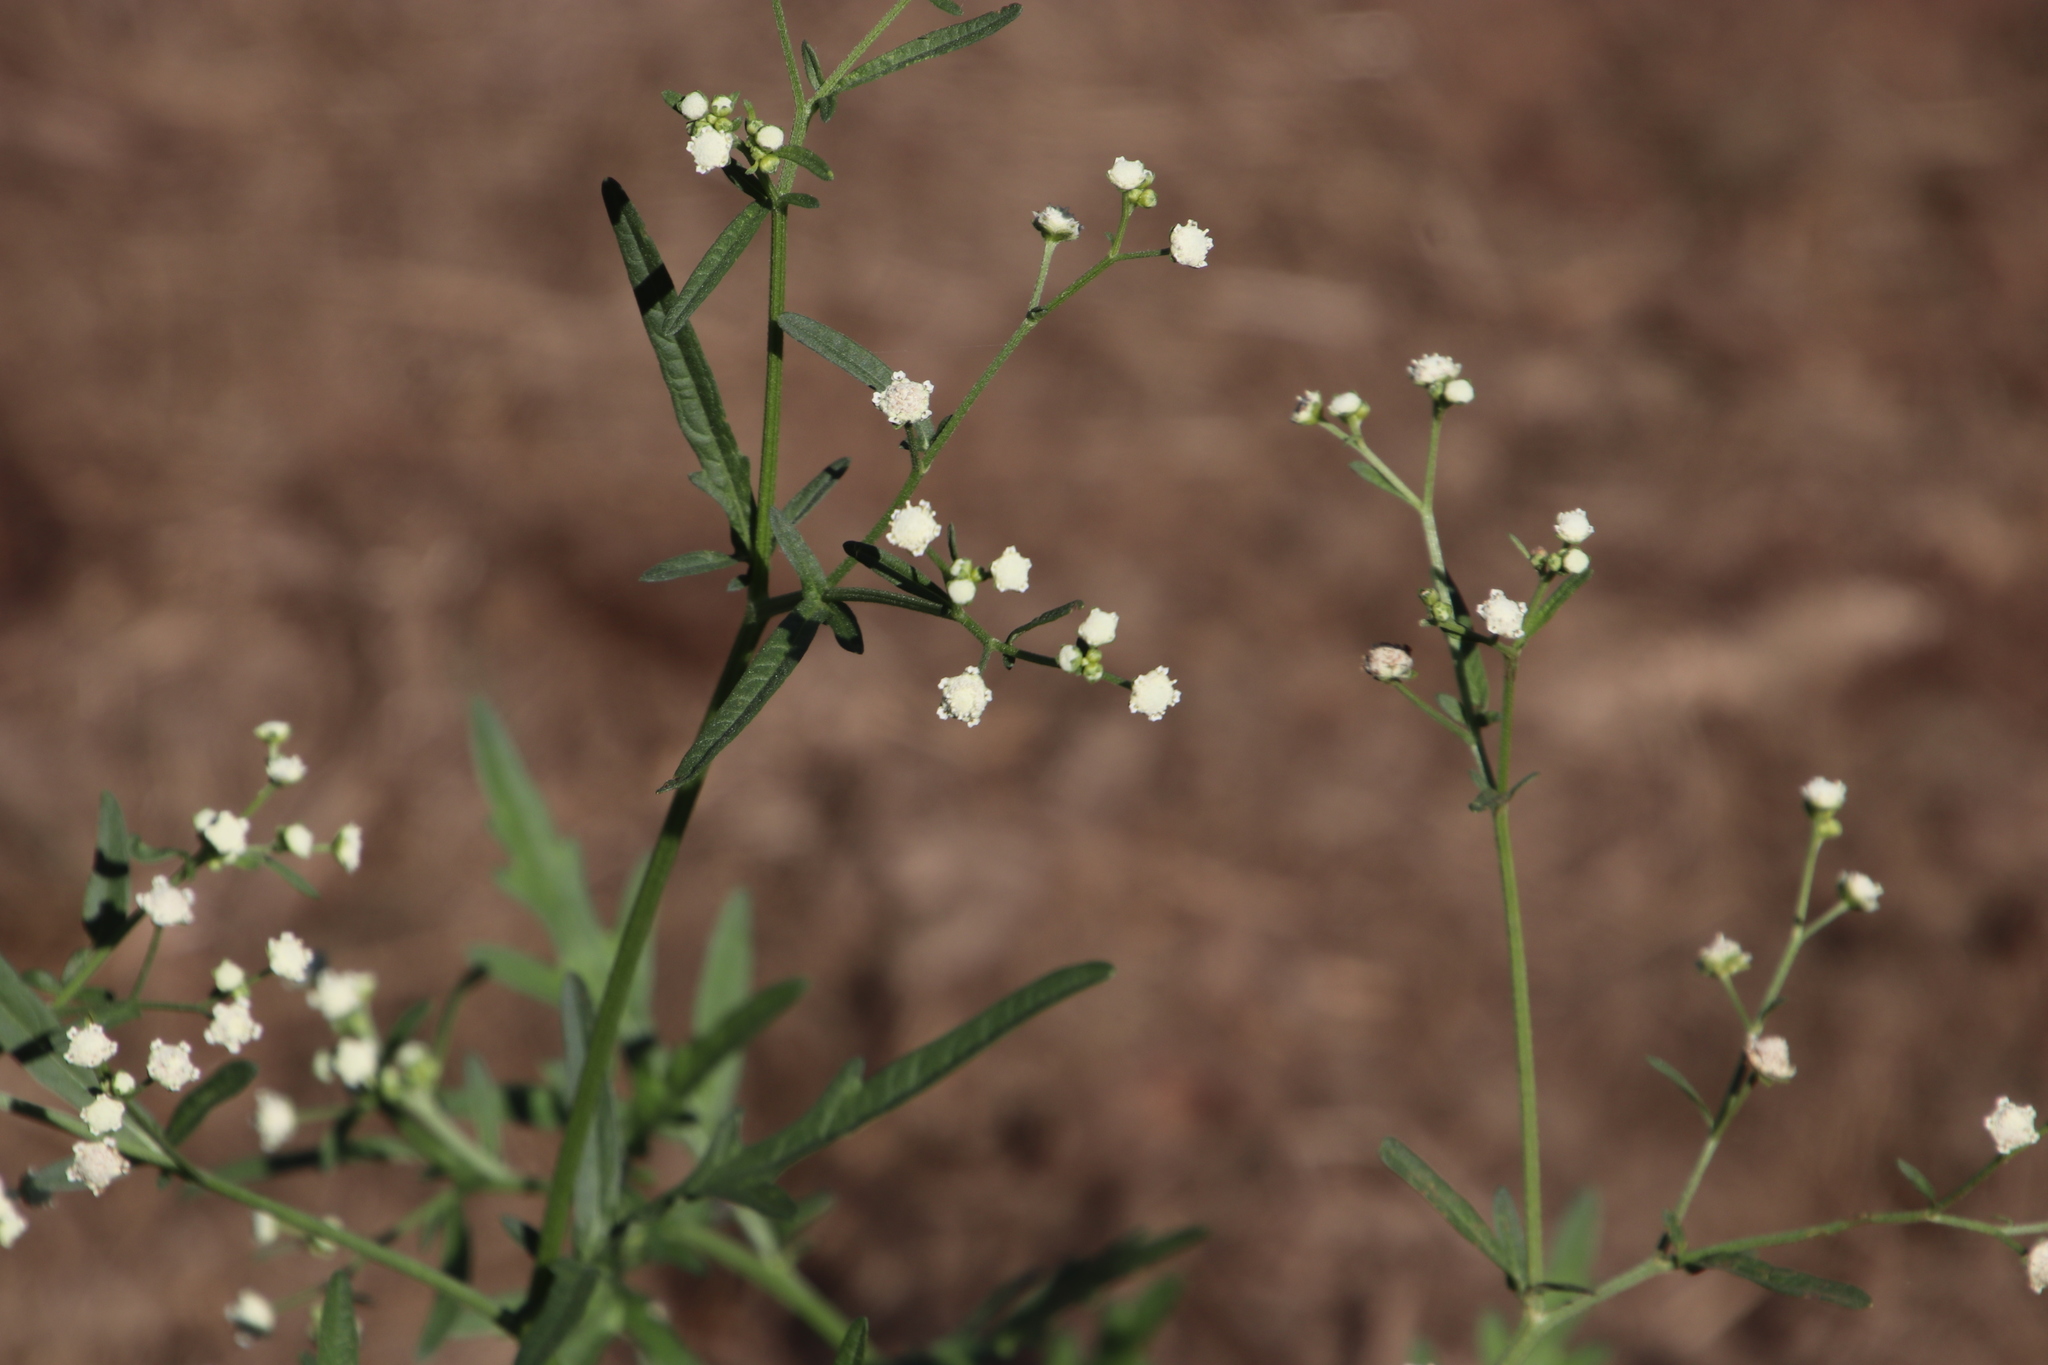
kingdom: Plantae
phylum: Tracheophyta
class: Magnoliopsida
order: Asterales
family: Asteraceae
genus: Parthenium
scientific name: Parthenium hysterophorus
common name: Santa maria feverfew
